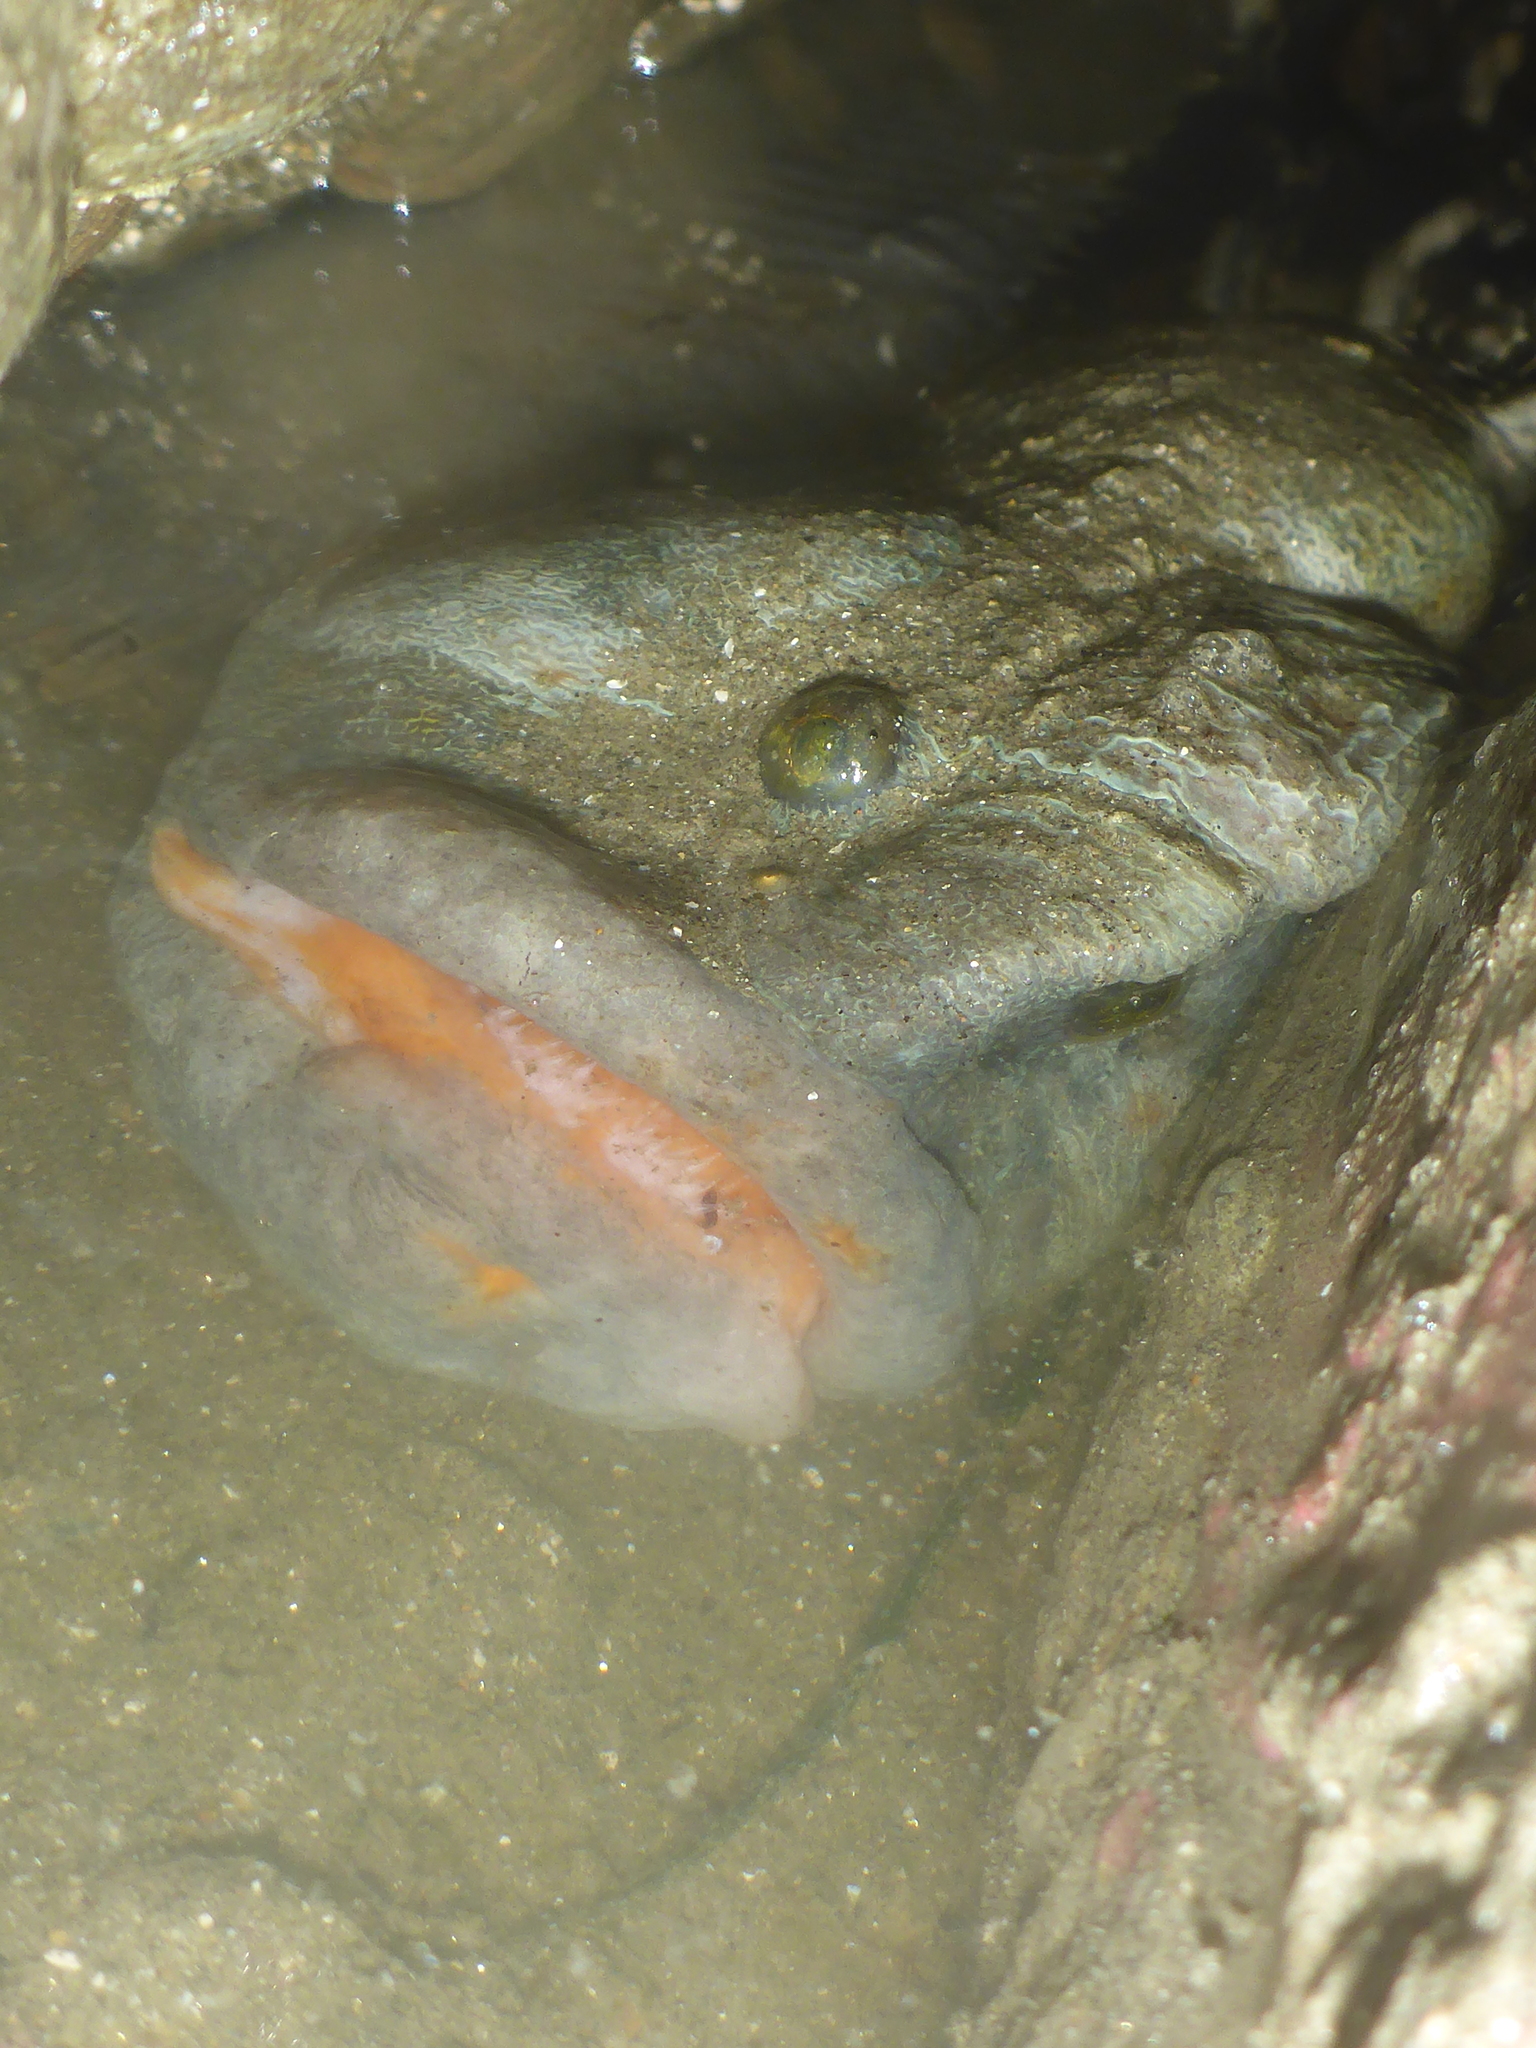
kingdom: Animalia
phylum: Chordata
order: Perciformes
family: Stichaeidae
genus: Cebidichthys
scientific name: Cebidichthys violaceus
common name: Monkeyface prickleback
